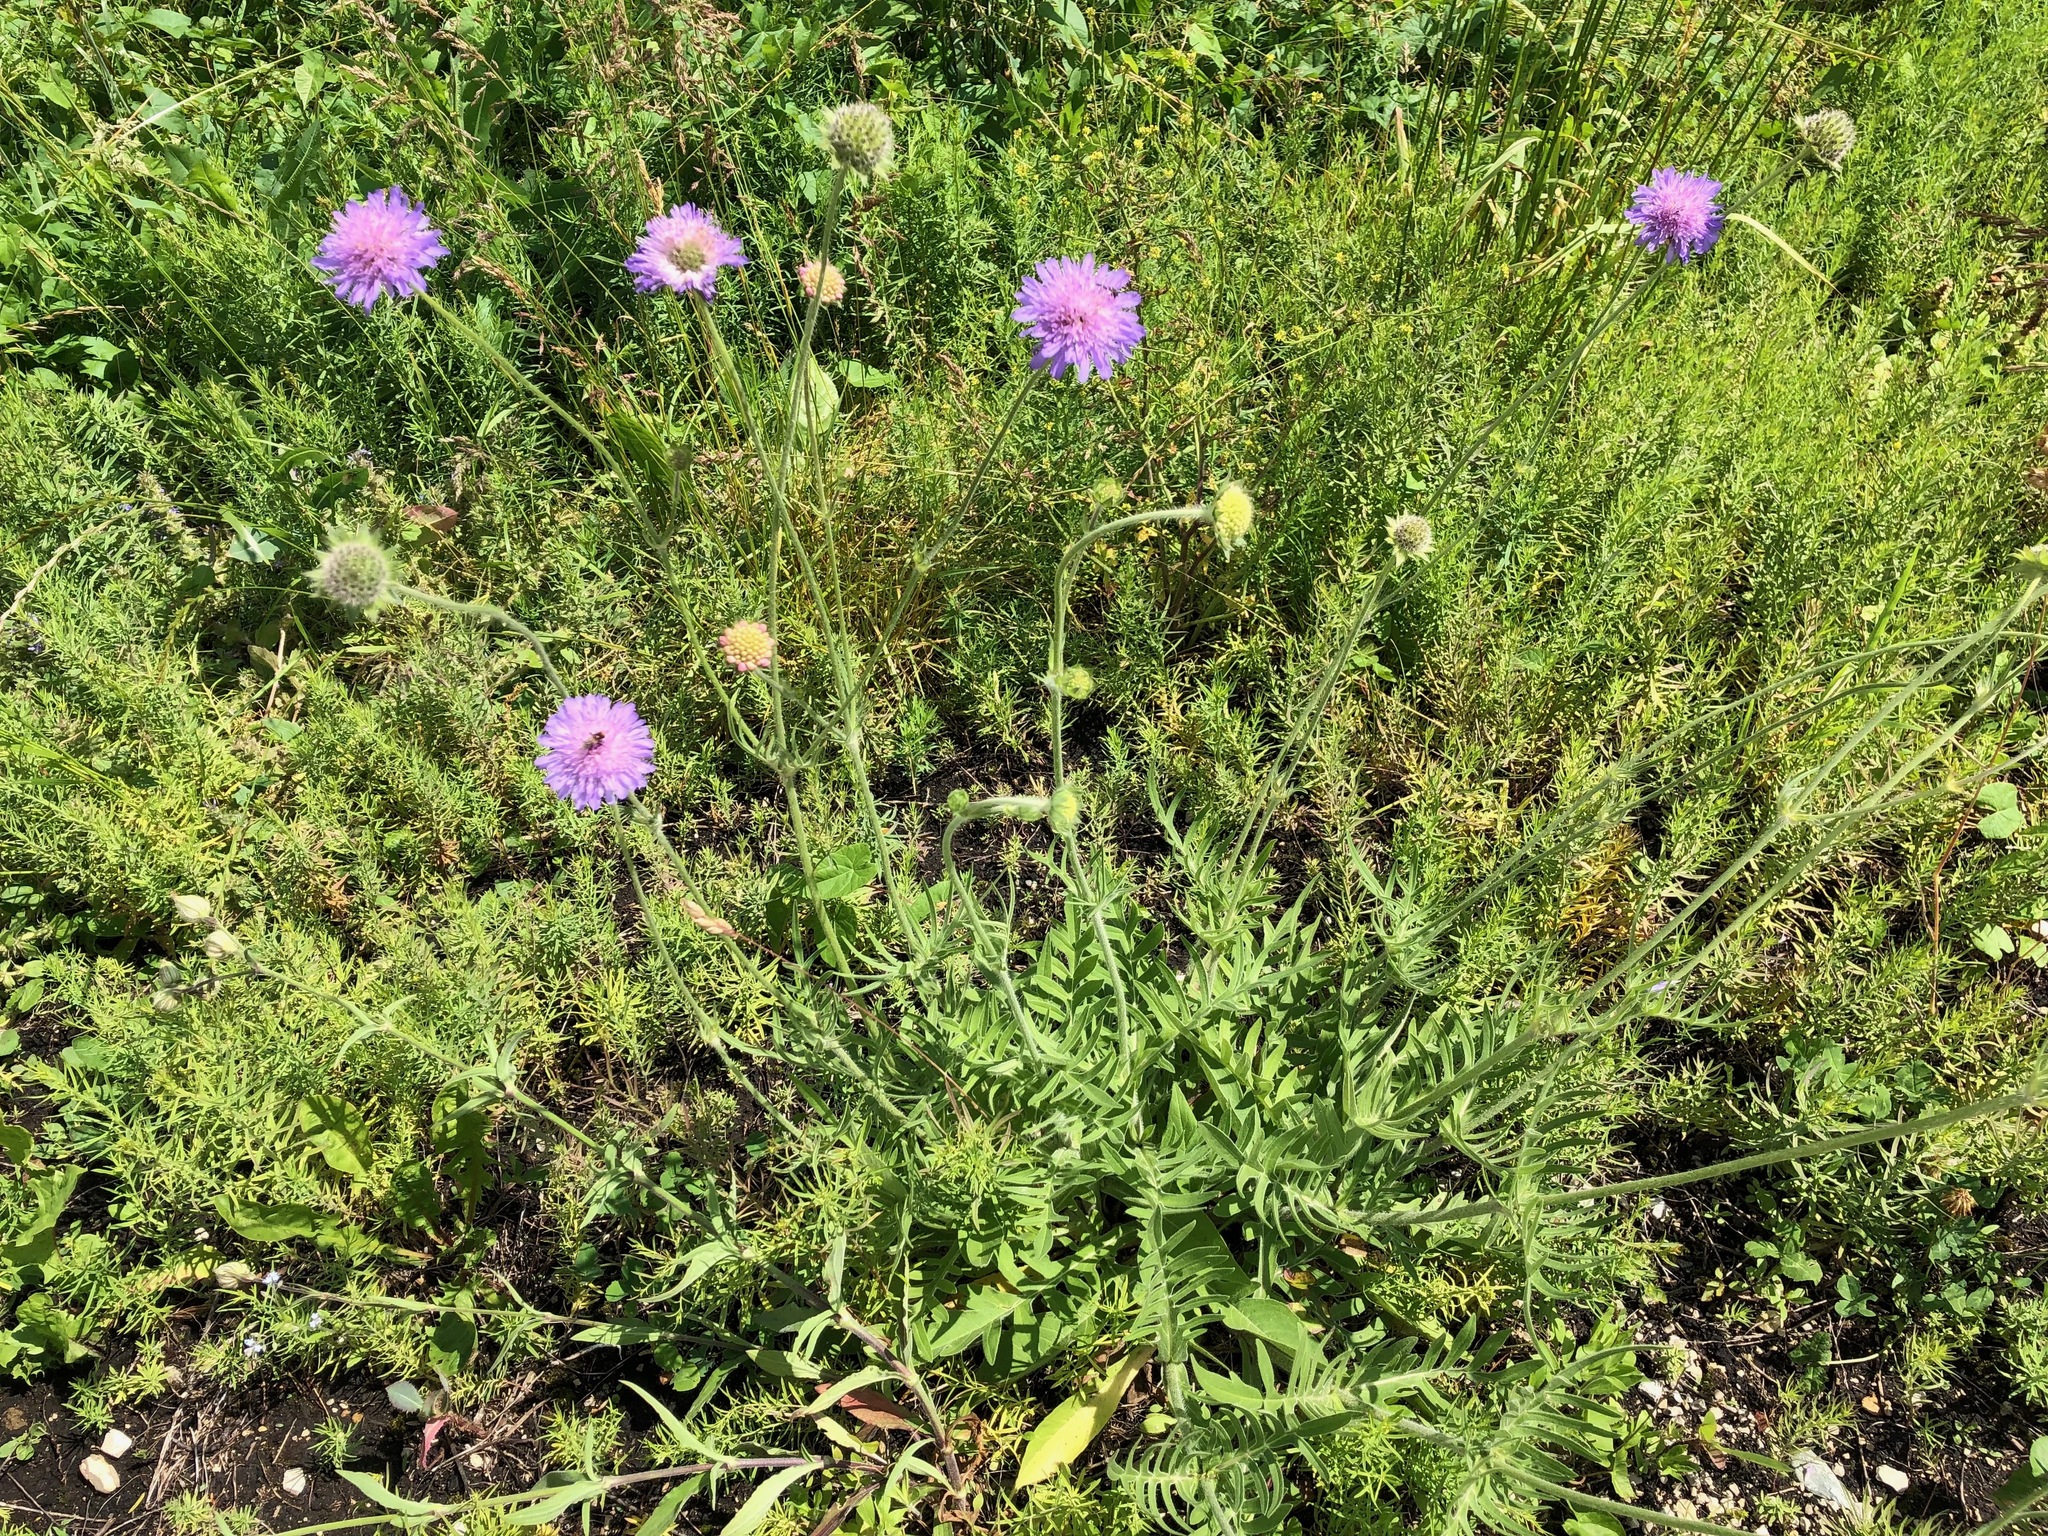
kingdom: Plantae
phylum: Tracheophyta
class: Magnoliopsida
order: Dipsacales
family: Caprifoliaceae
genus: Knautia
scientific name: Knautia arvensis
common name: Field scabiosa
